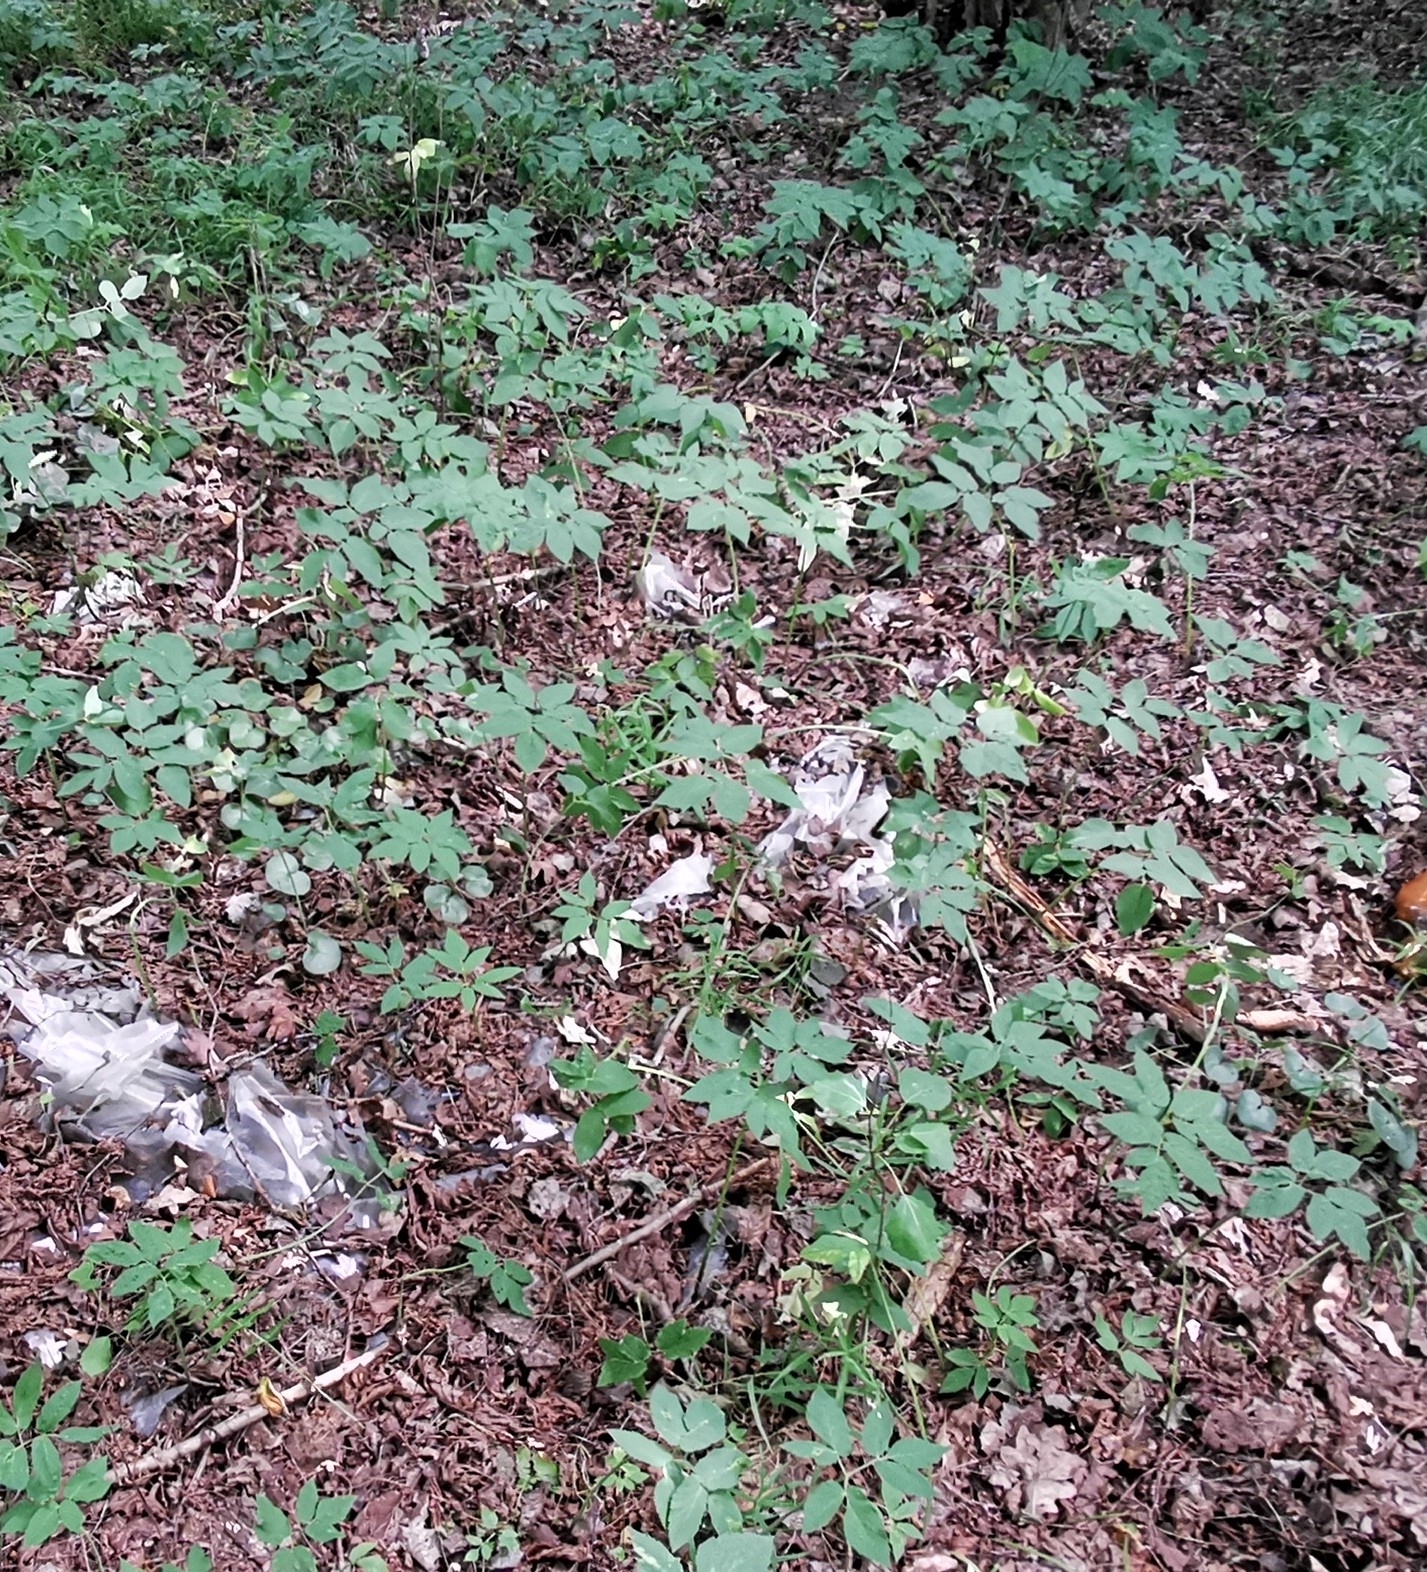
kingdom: Plantae
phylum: Tracheophyta
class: Magnoliopsida
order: Apiales
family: Apiaceae
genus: Aegopodium
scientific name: Aegopodium podagraria
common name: Ground-elder
